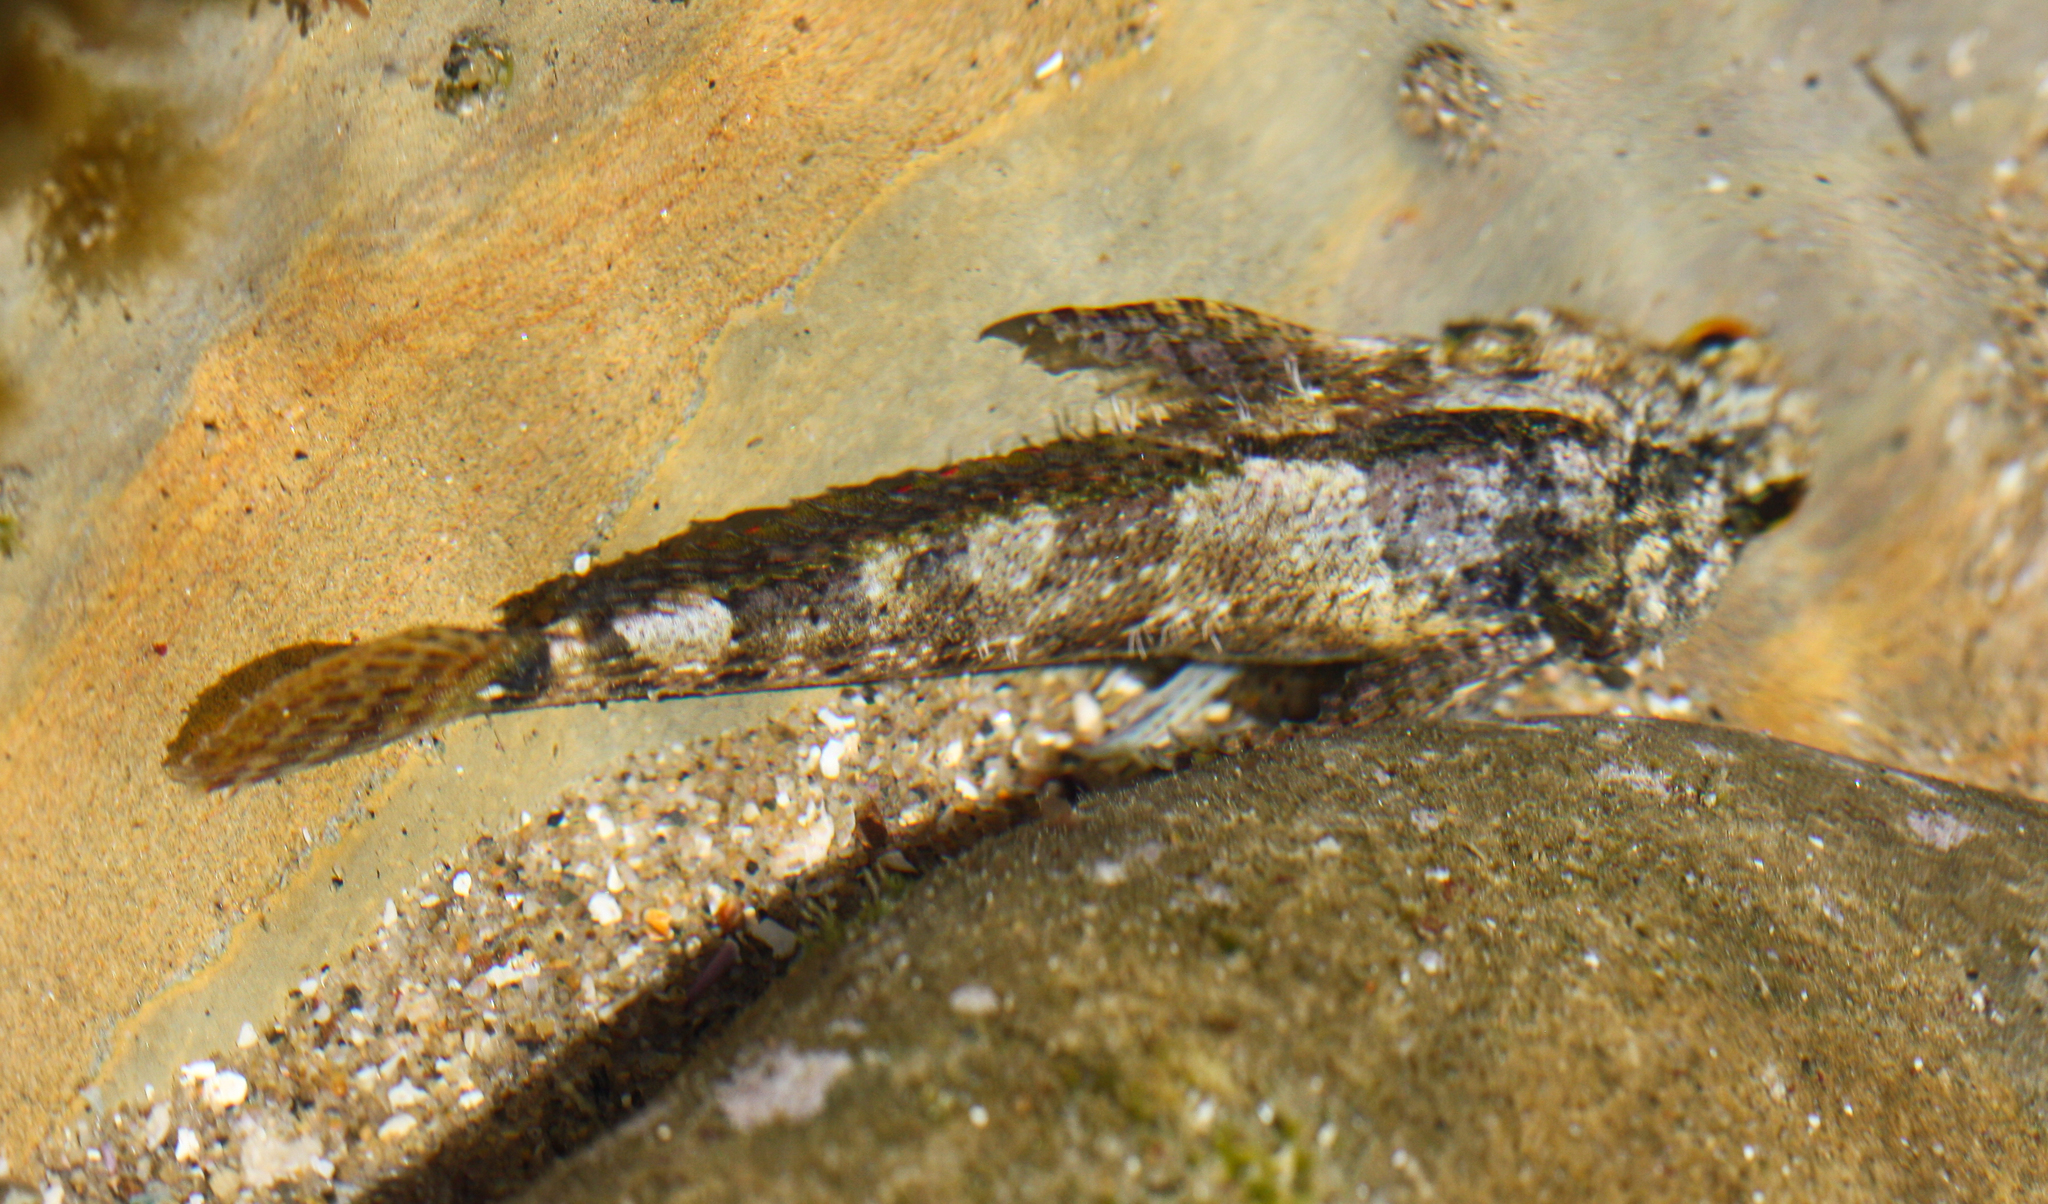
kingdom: Animalia
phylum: Chordata
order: Scorpaeniformes
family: Cottidae
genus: Clinocottus
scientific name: Clinocottus analis
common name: Woolly sculpin
